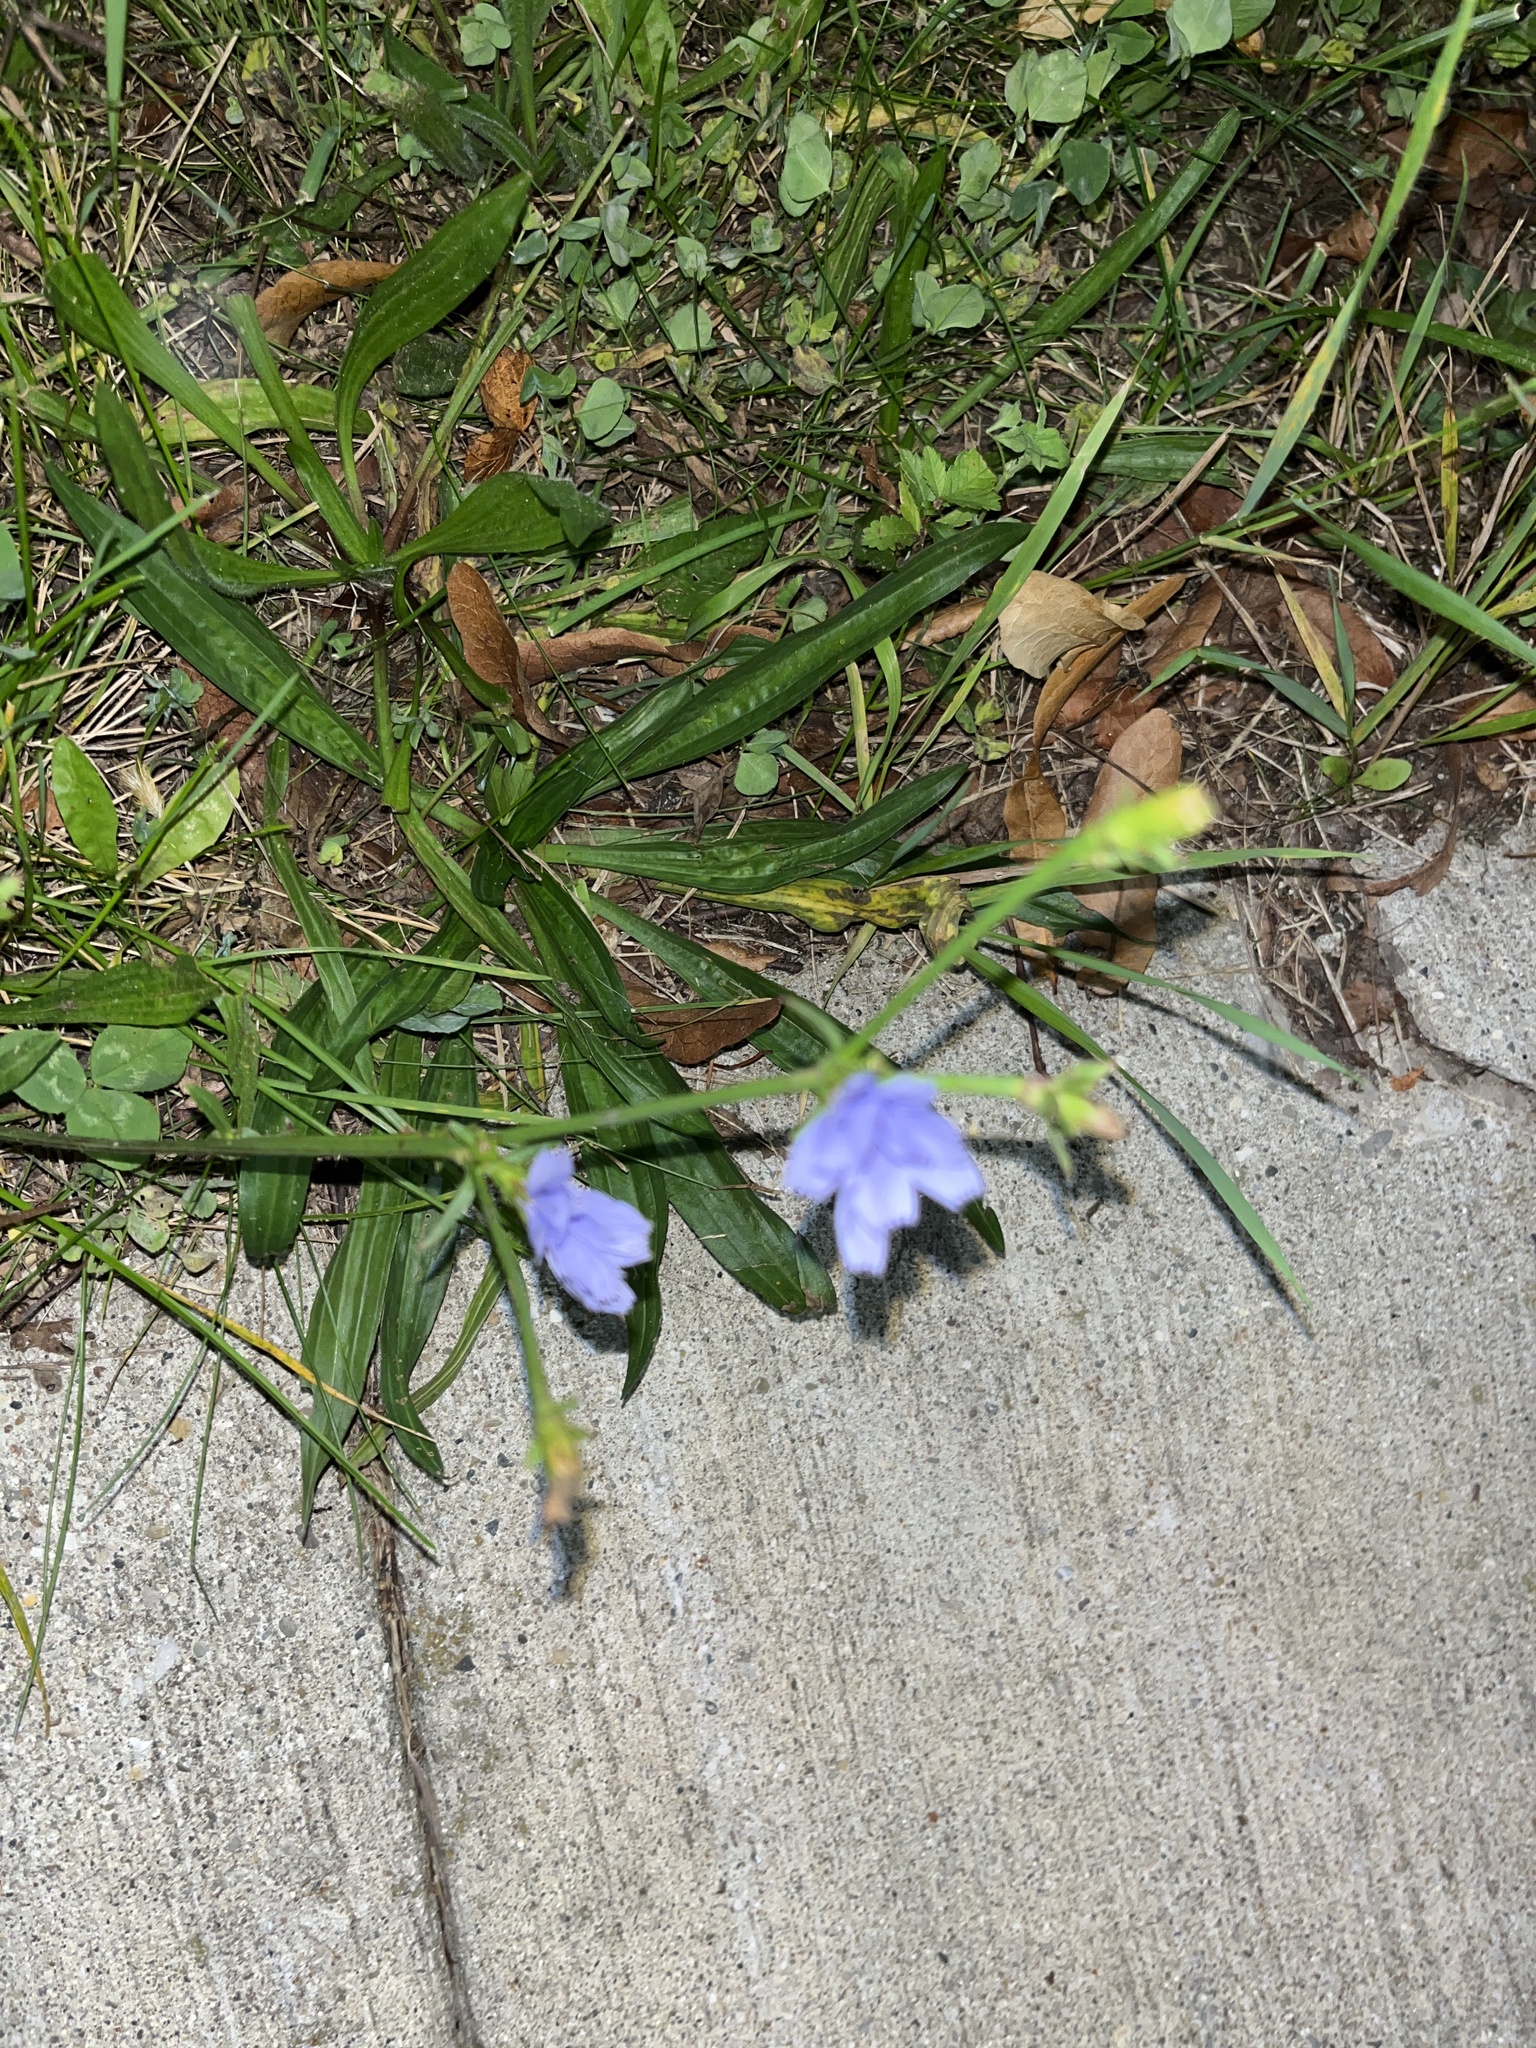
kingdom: Plantae
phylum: Tracheophyta
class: Magnoliopsida
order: Asterales
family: Asteraceae
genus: Cichorium
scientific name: Cichorium intybus
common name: Chicory
